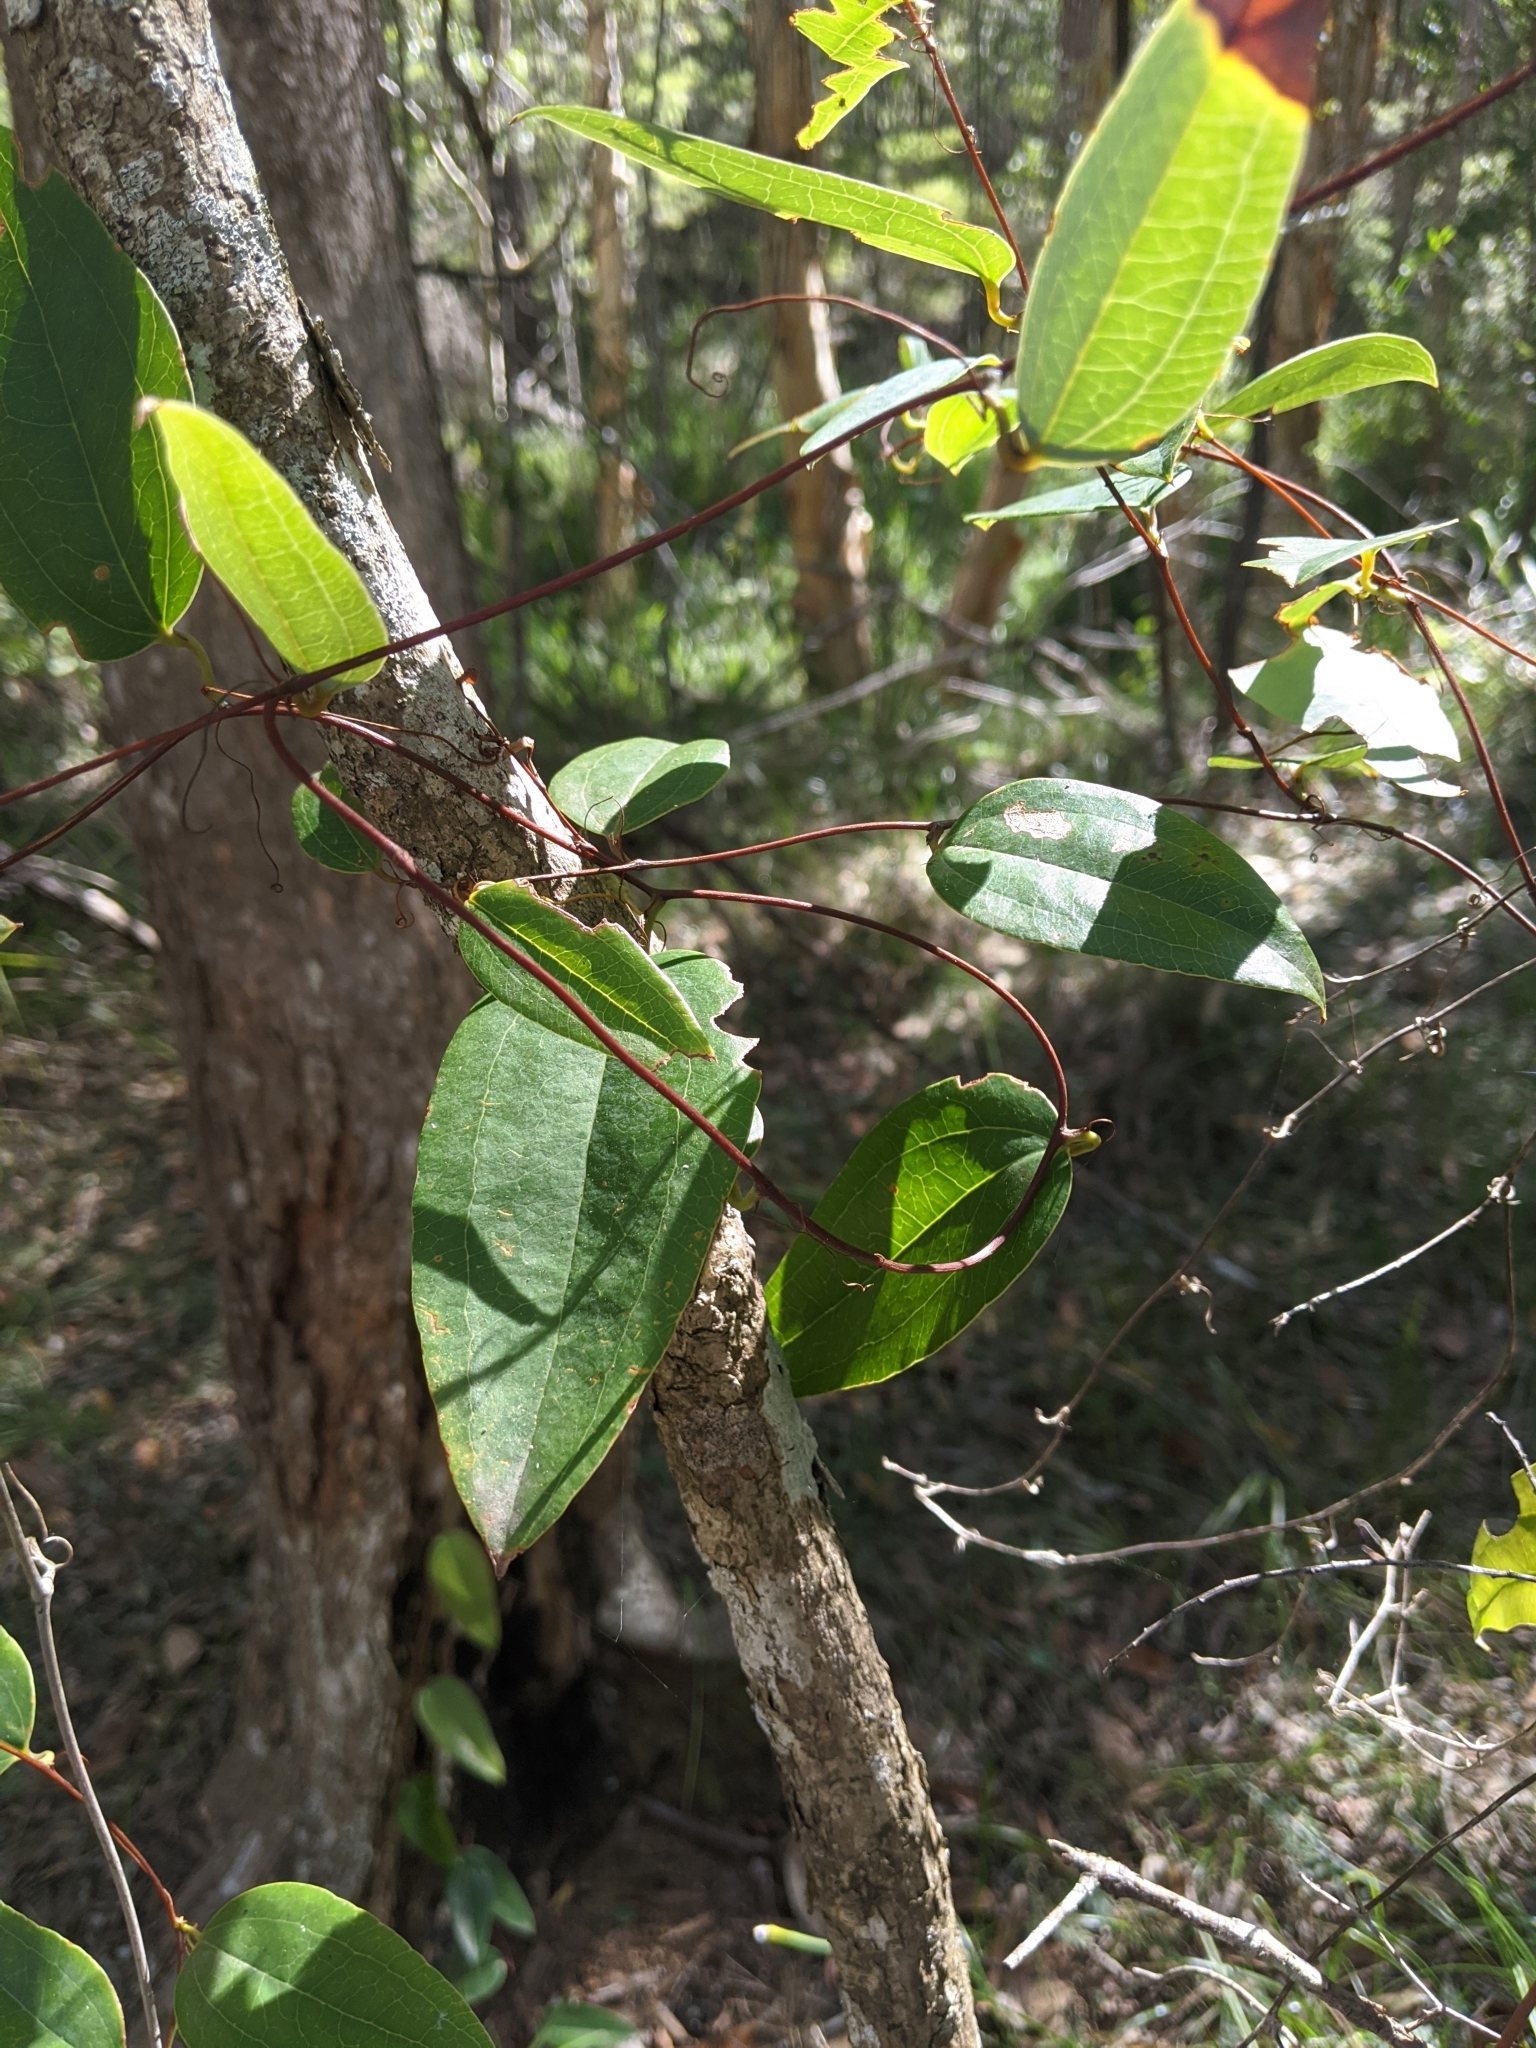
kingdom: Plantae
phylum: Tracheophyta
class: Liliopsida
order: Liliales
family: Smilacaceae
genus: Smilax
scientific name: Smilax glyciphylla
